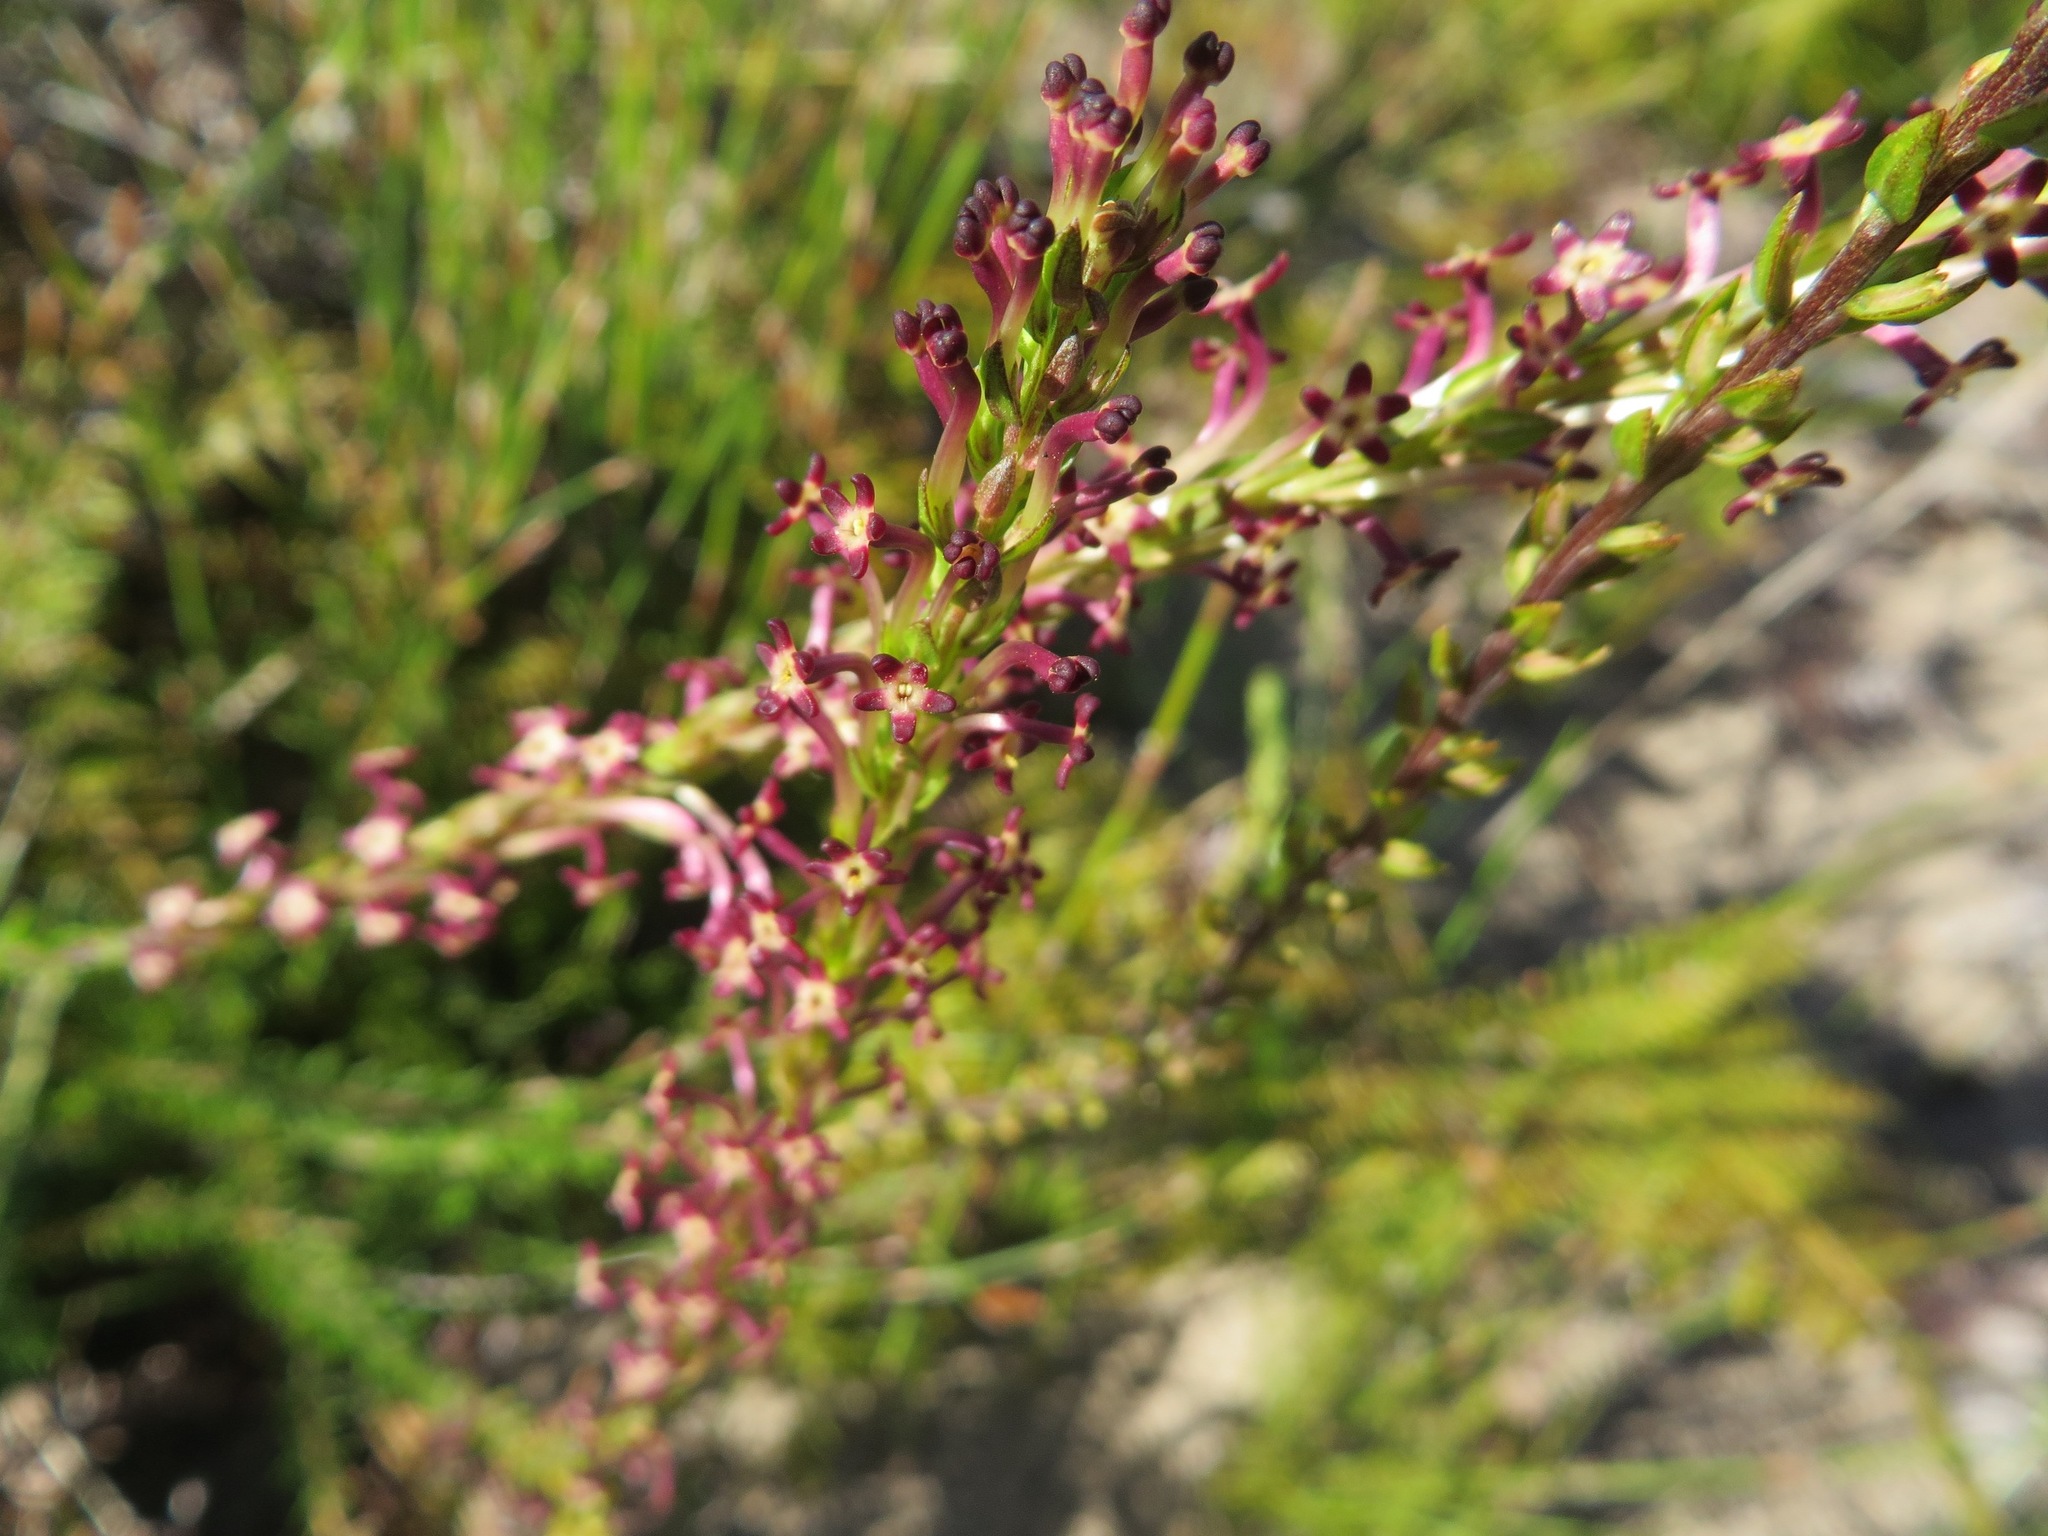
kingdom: Plantae
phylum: Tracheophyta
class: Magnoliopsida
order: Lamiales
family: Scrophulariaceae
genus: Microdon
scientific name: Microdon dubius
